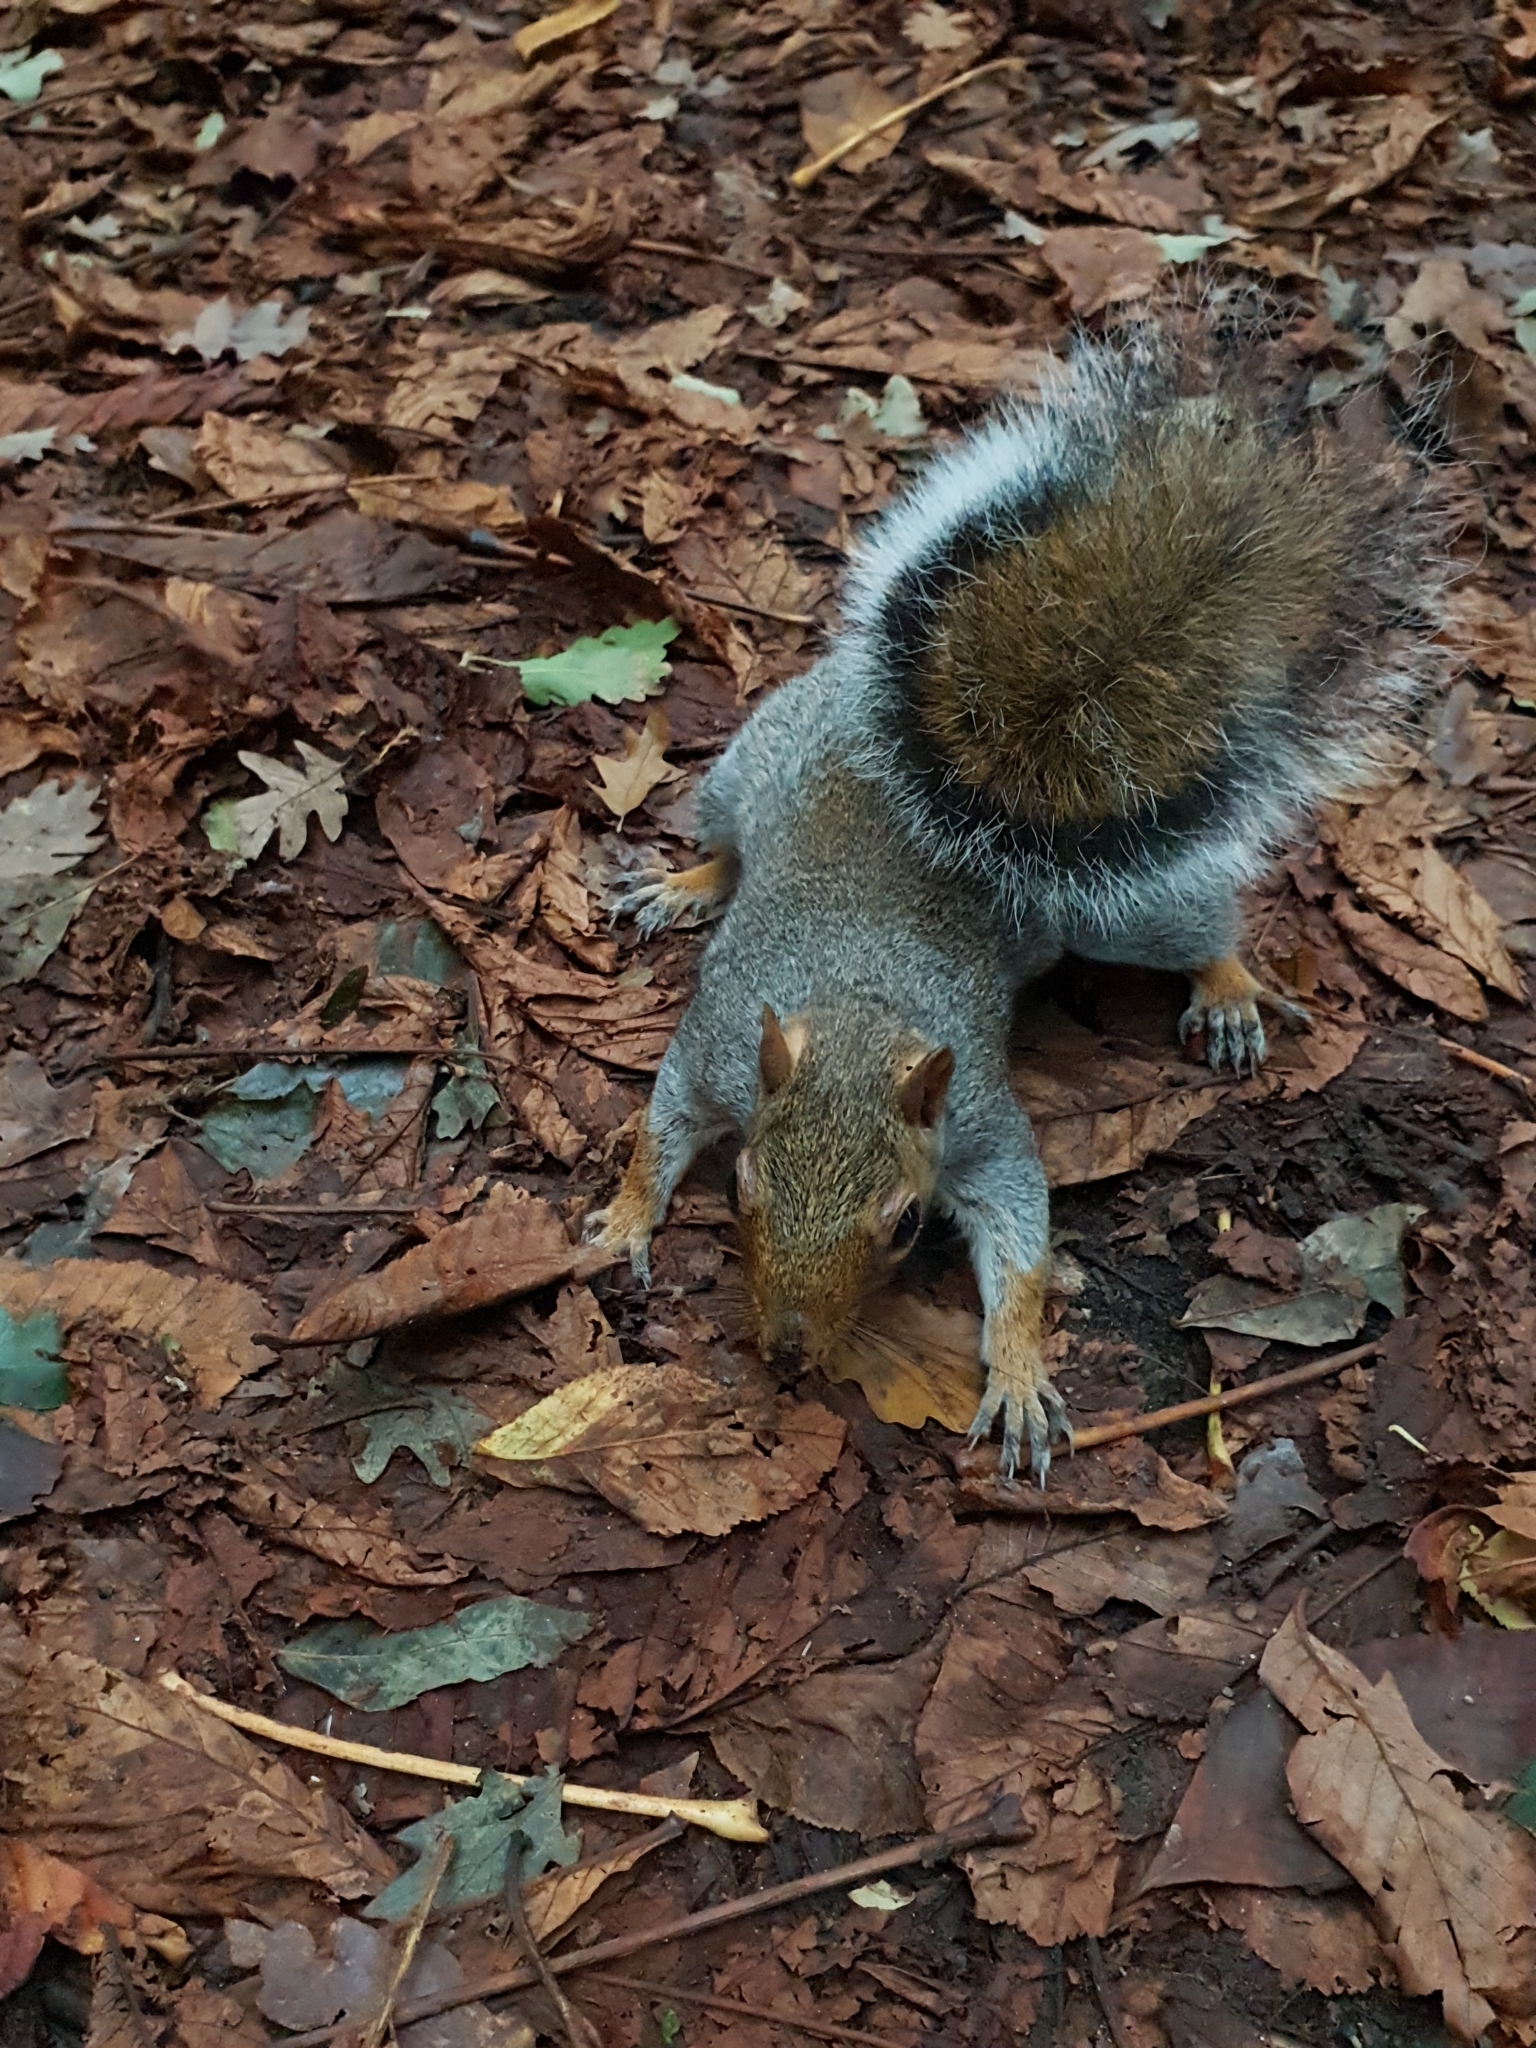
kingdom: Animalia
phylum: Chordata
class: Mammalia
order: Rodentia
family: Sciuridae
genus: Sciurus
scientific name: Sciurus carolinensis
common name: Eastern gray squirrel
